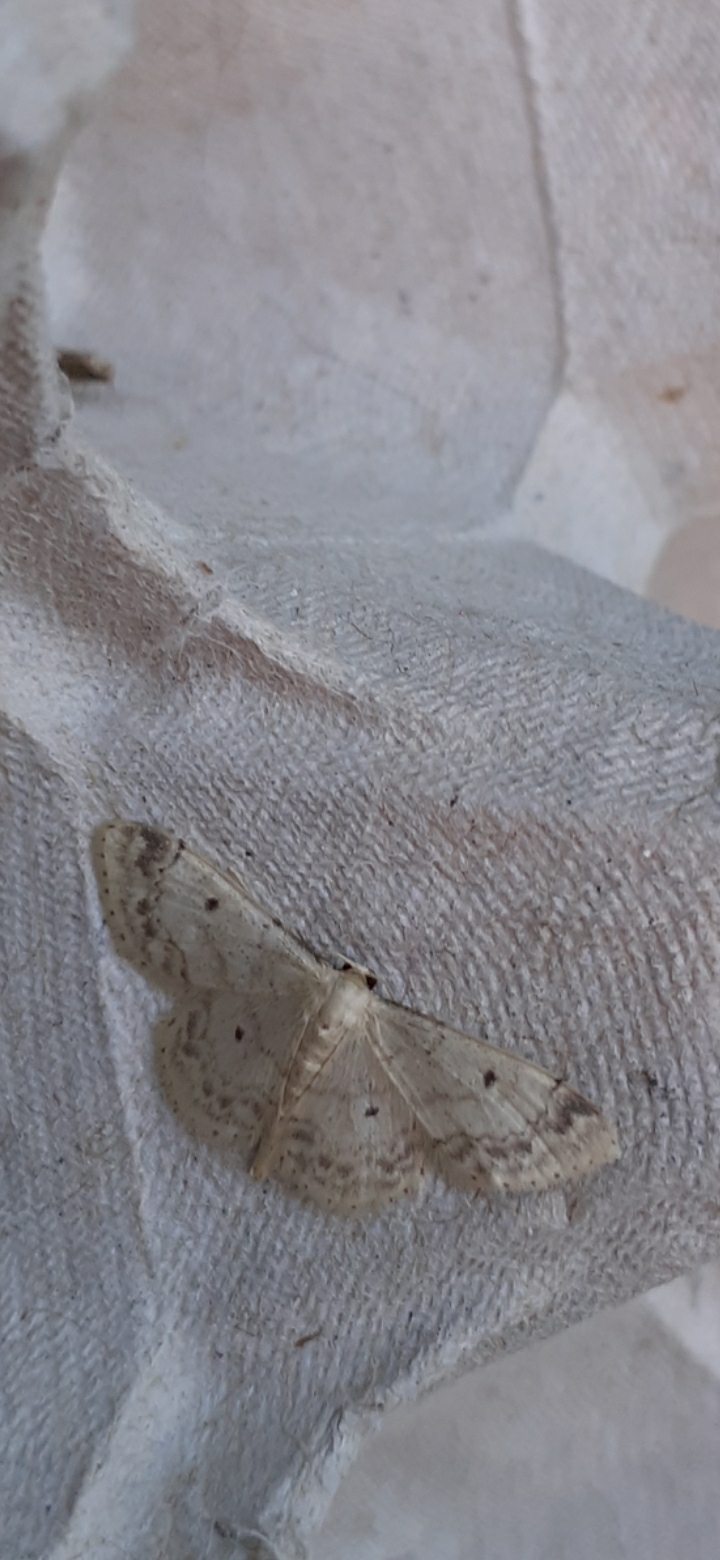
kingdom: Animalia
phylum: Arthropoda
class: Insecta
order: Lepidoptera
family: Geometridae
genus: Idaea
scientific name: Idaea biselata
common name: Small fan-footed wave
